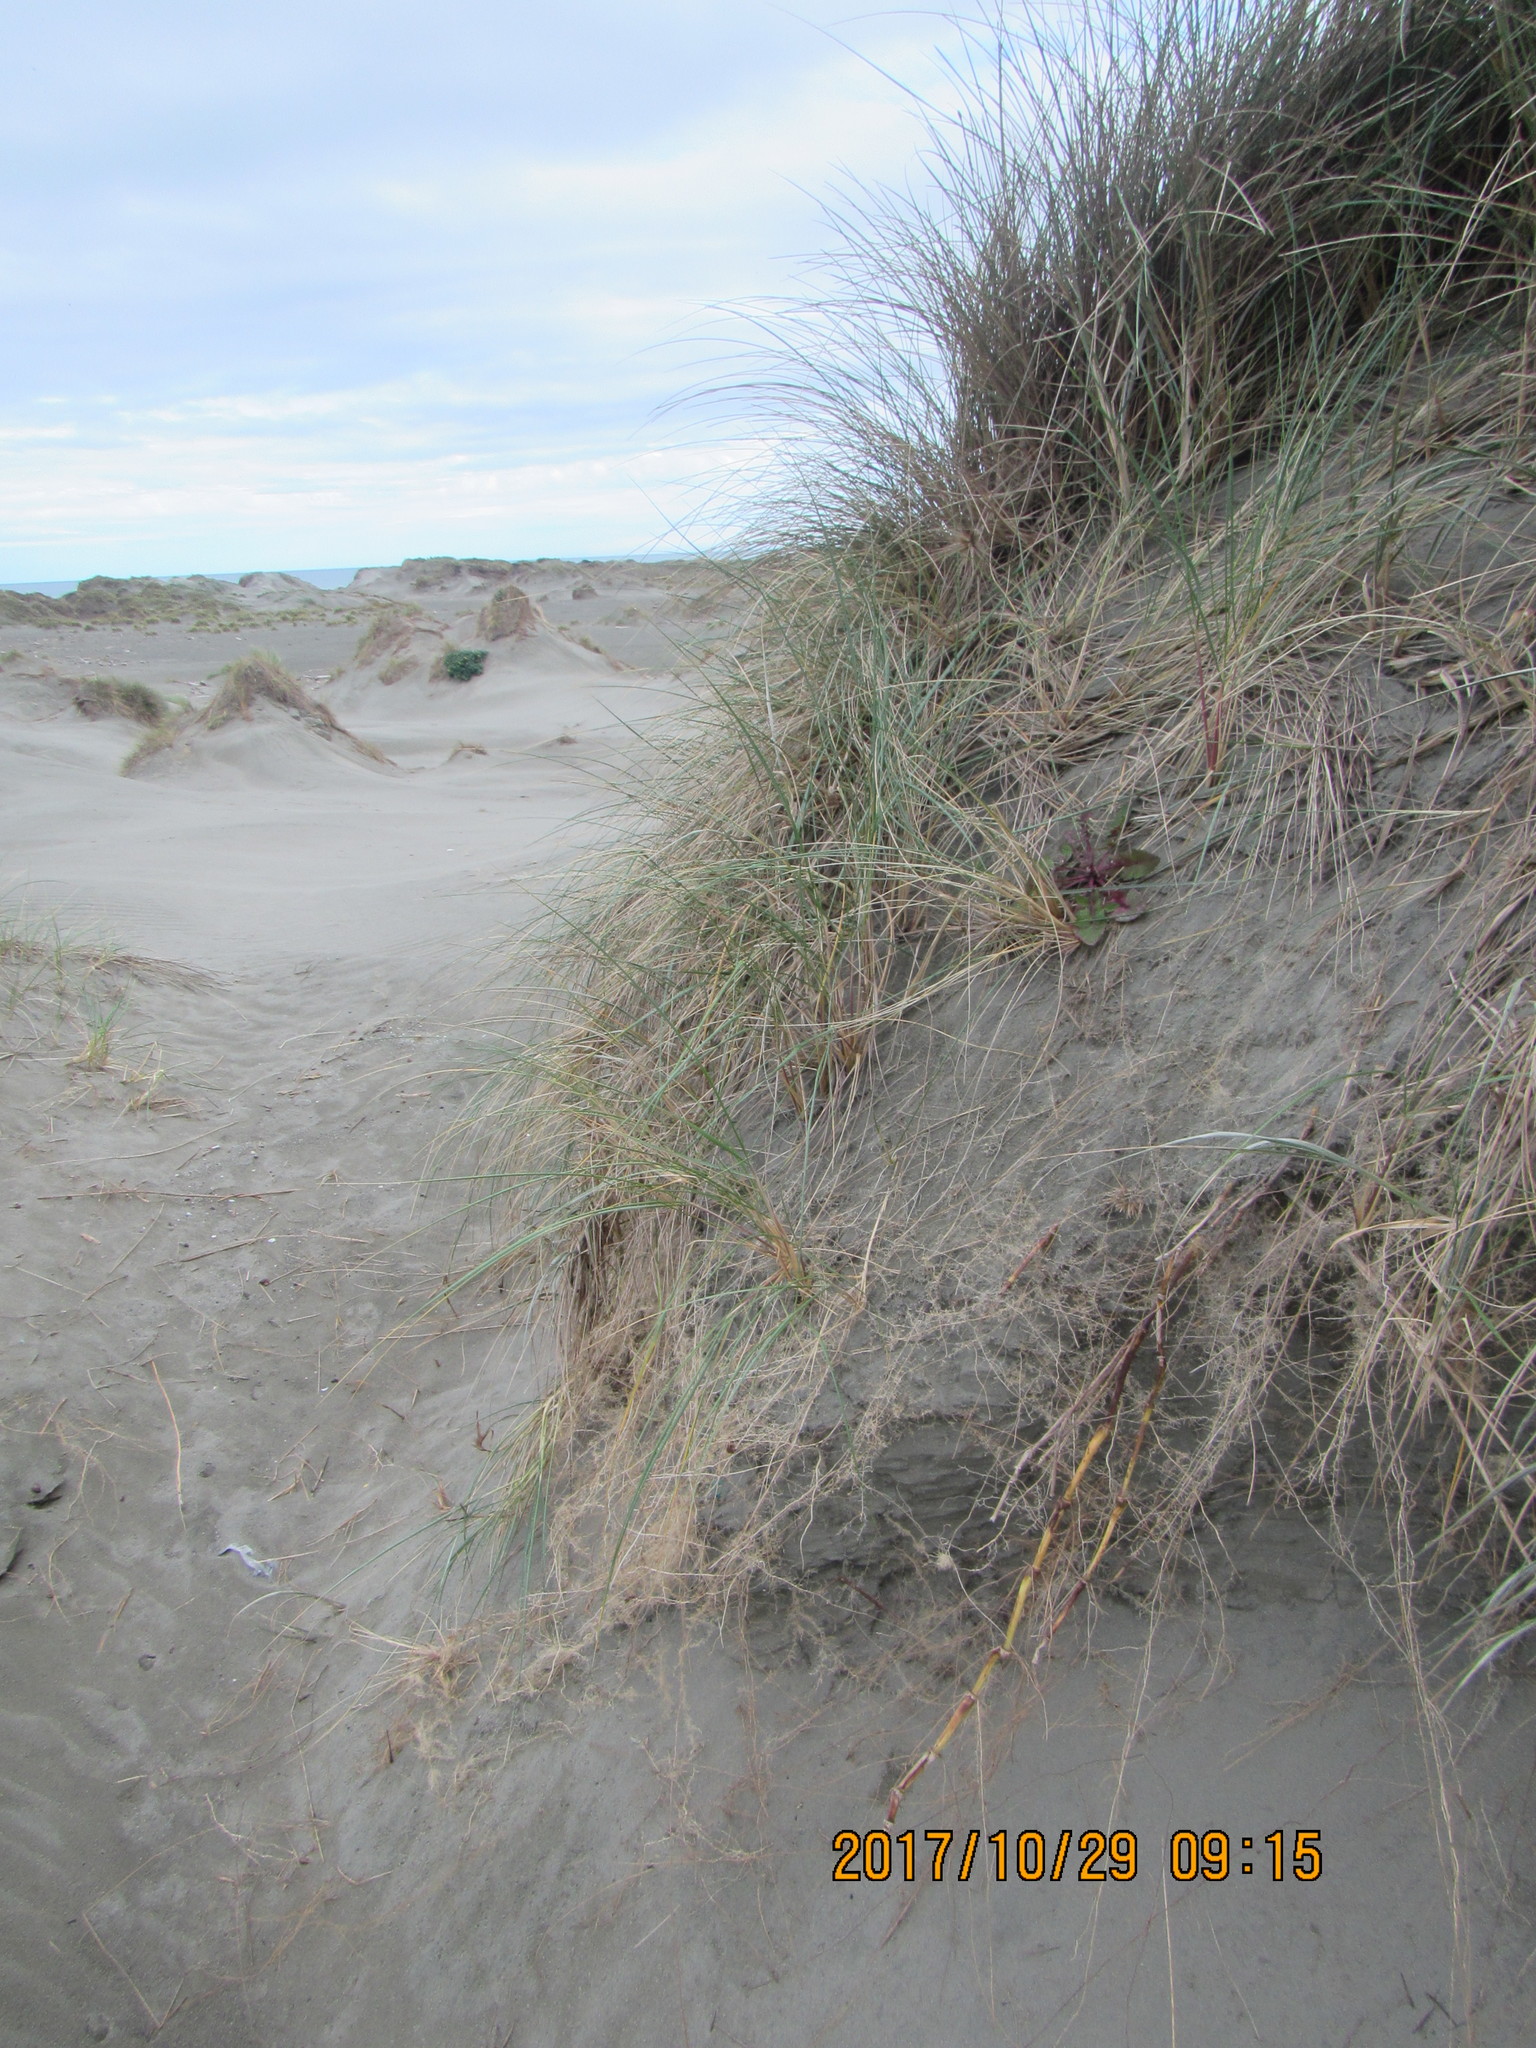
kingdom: Plantae
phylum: Tracheophyta
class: Magnoliopsida
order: Asterales
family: Asteraceae
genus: Sonchus
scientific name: Sonchus oleraceus
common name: Common sowthistle
